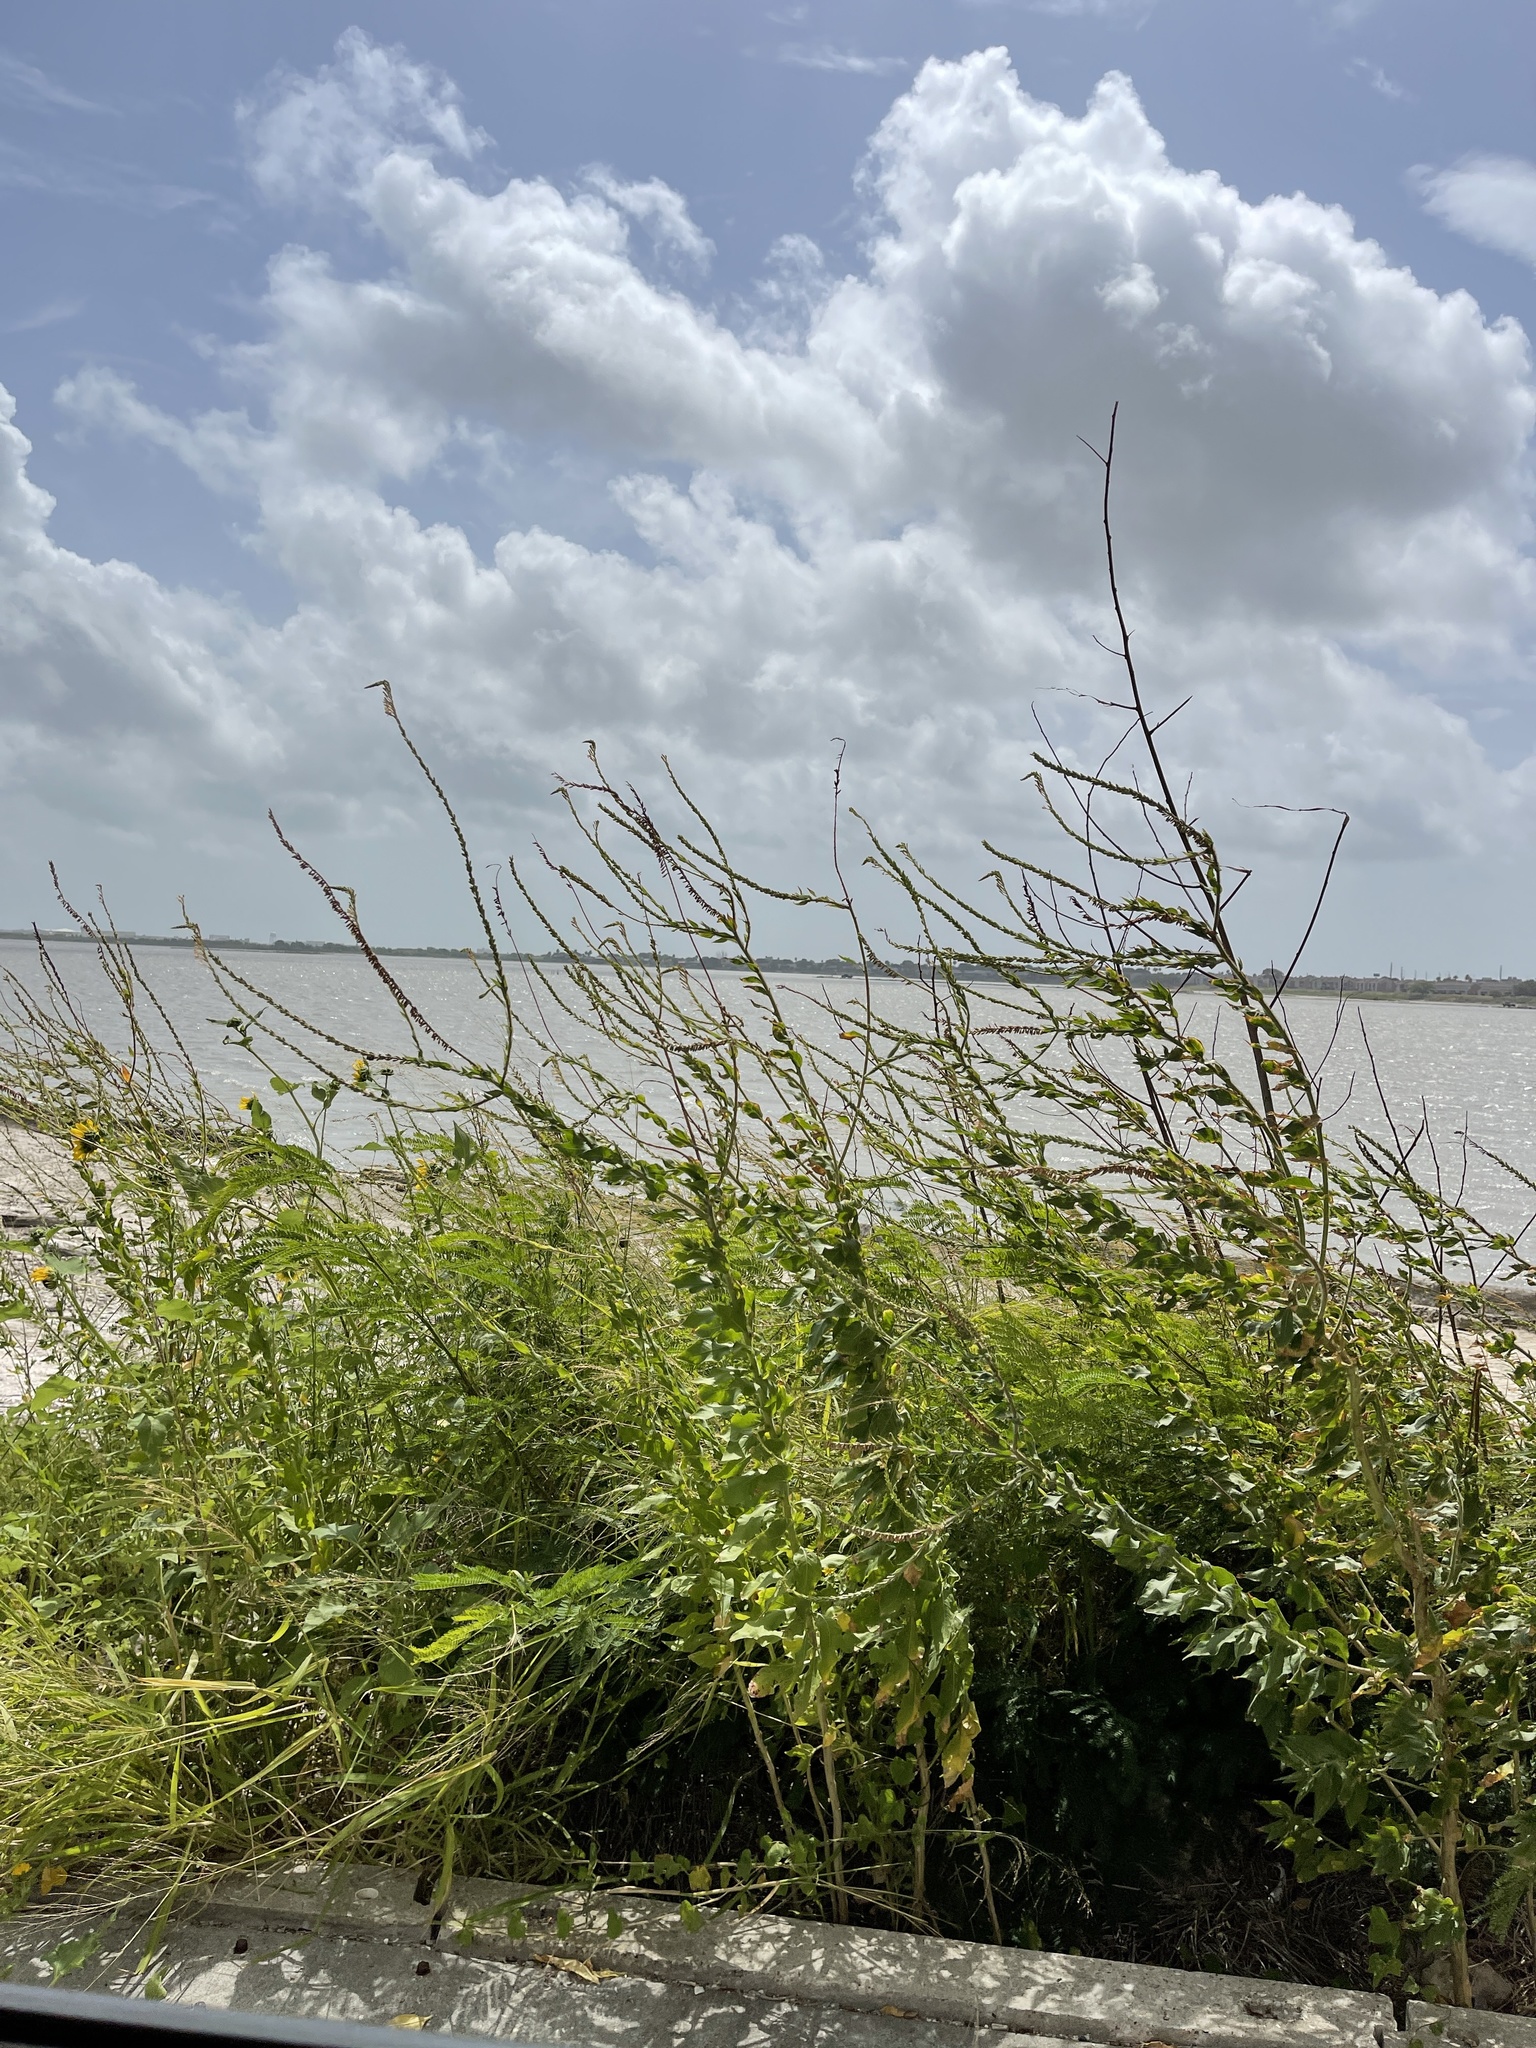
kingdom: Plantae
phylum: Tracheophyta
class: Magnoliopsida
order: Myrtales
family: Onagraceae
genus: Oenothera
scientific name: Oenothera curtiflora
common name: Velvetweed
